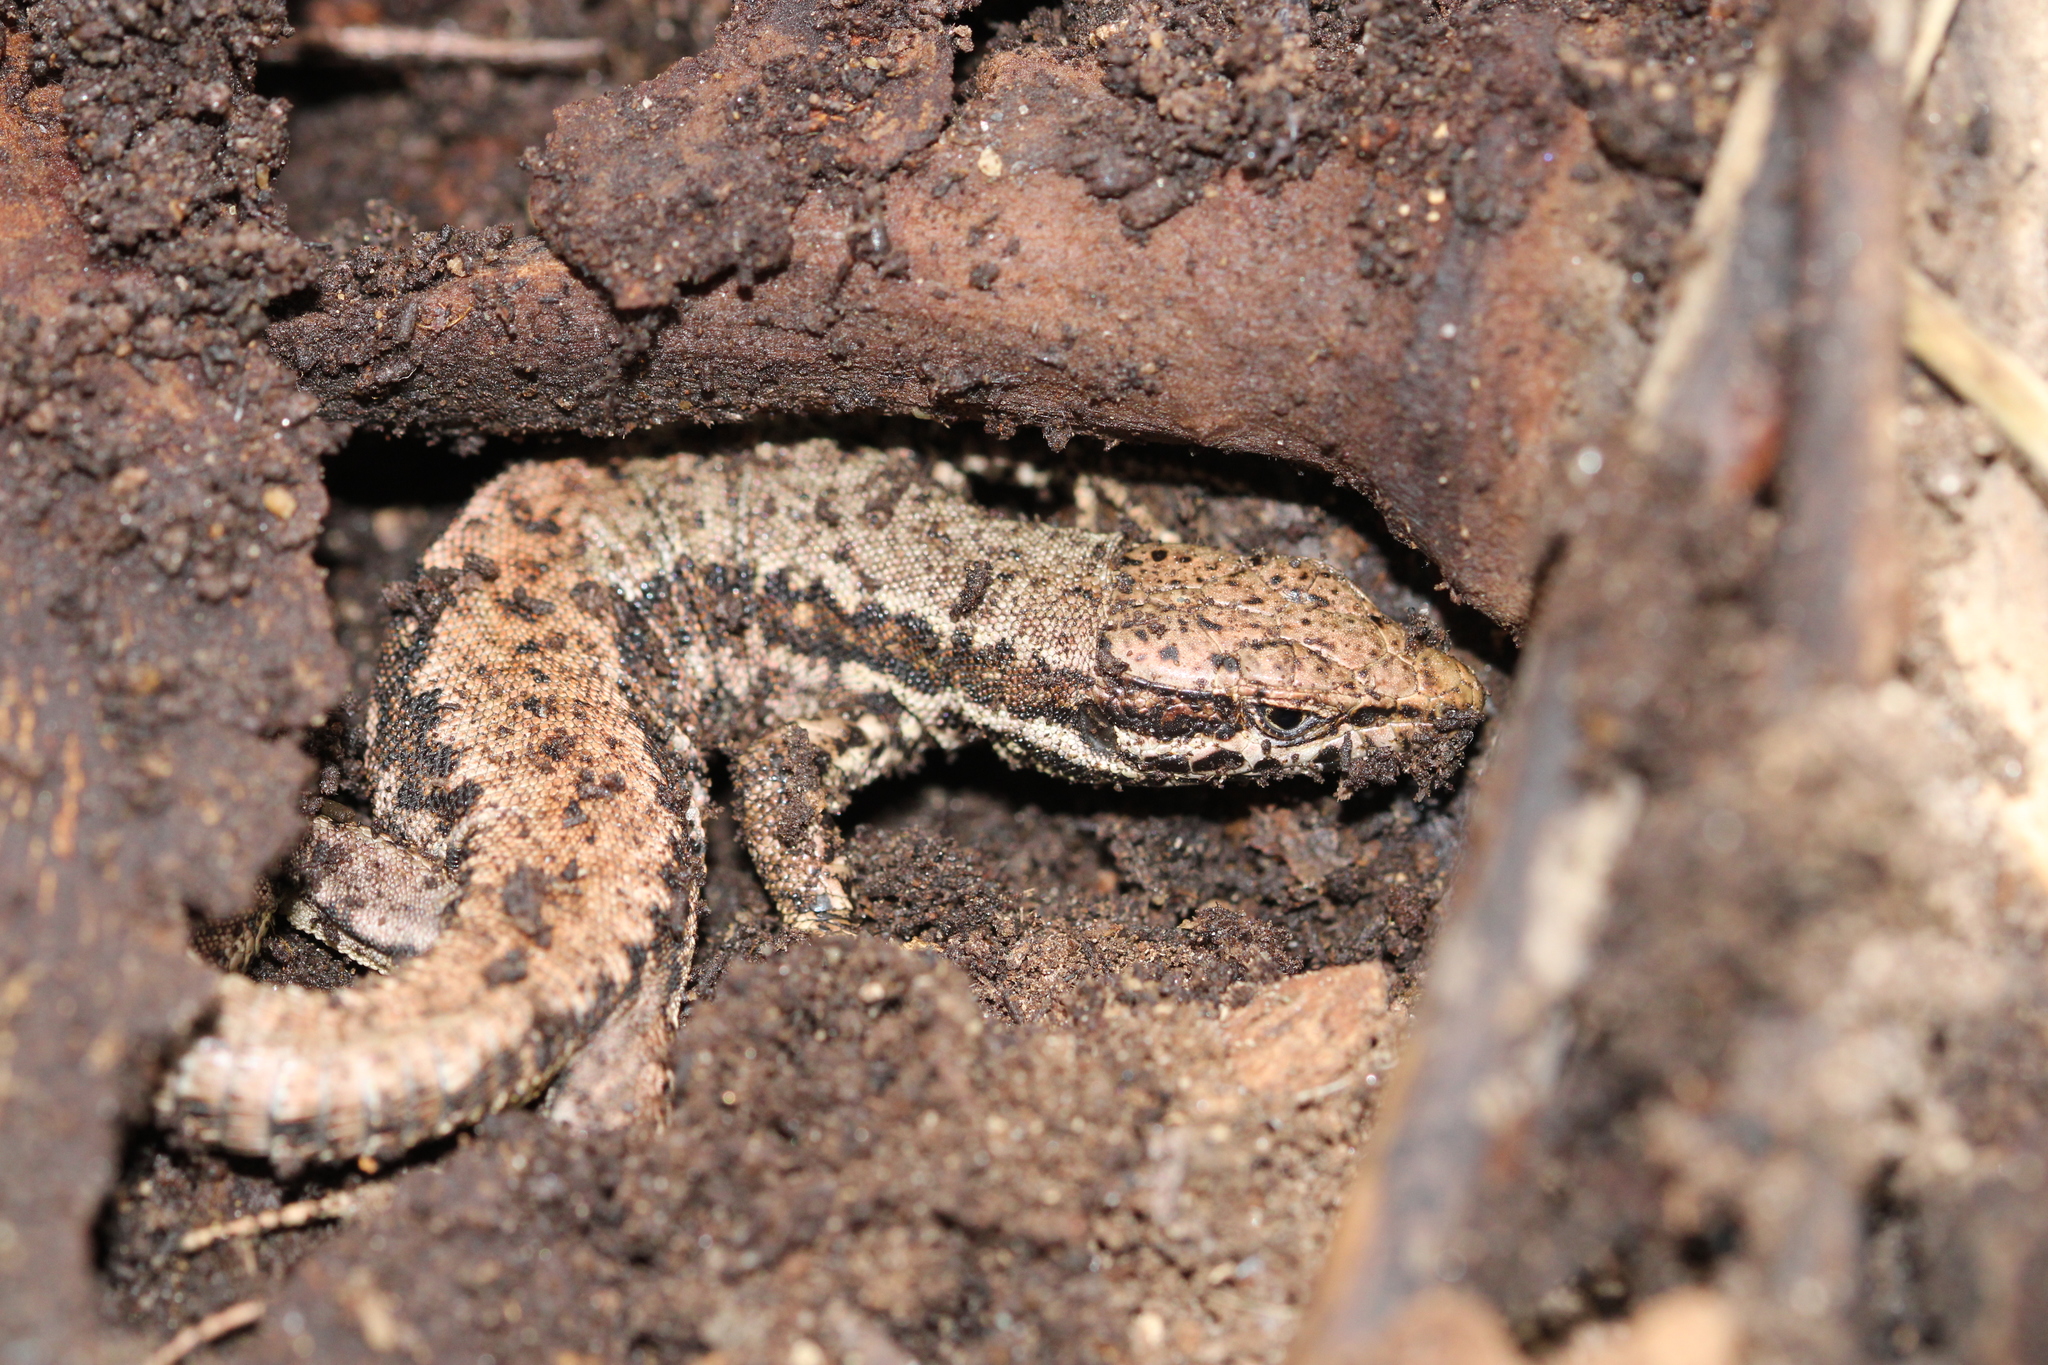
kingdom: Animalia
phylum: Chordata
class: Squamata
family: Lacertidae
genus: Podarcis
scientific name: Podarcis muralis
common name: Common wall lizard
